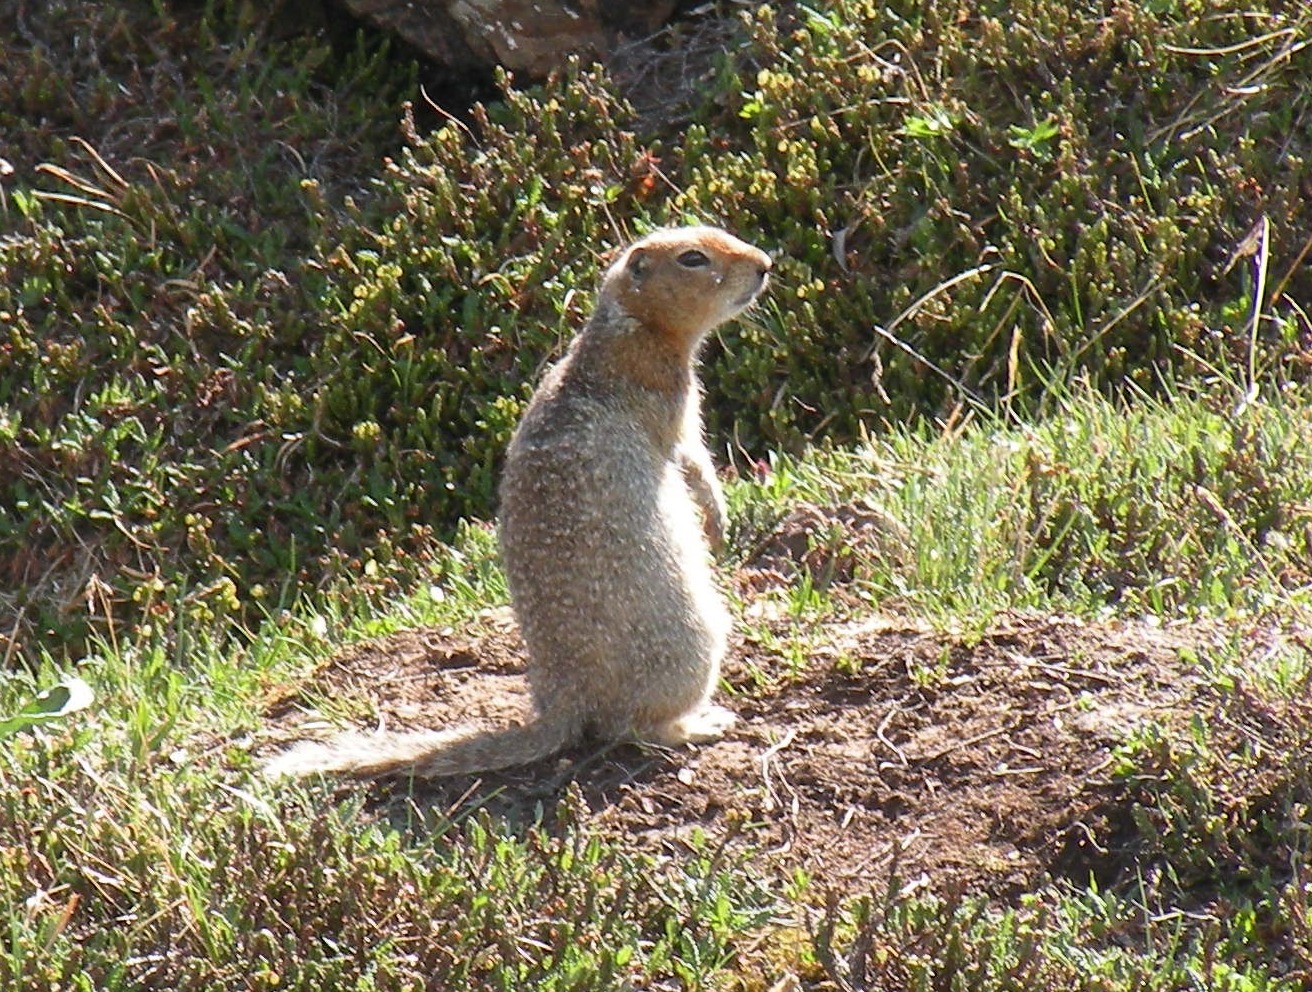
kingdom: Animalia
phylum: Chordata
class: Mammalia
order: Rodentia
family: Sciuridae
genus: Urocitellus
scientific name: Urocitellus parryii
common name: Arctic ground squirrel
